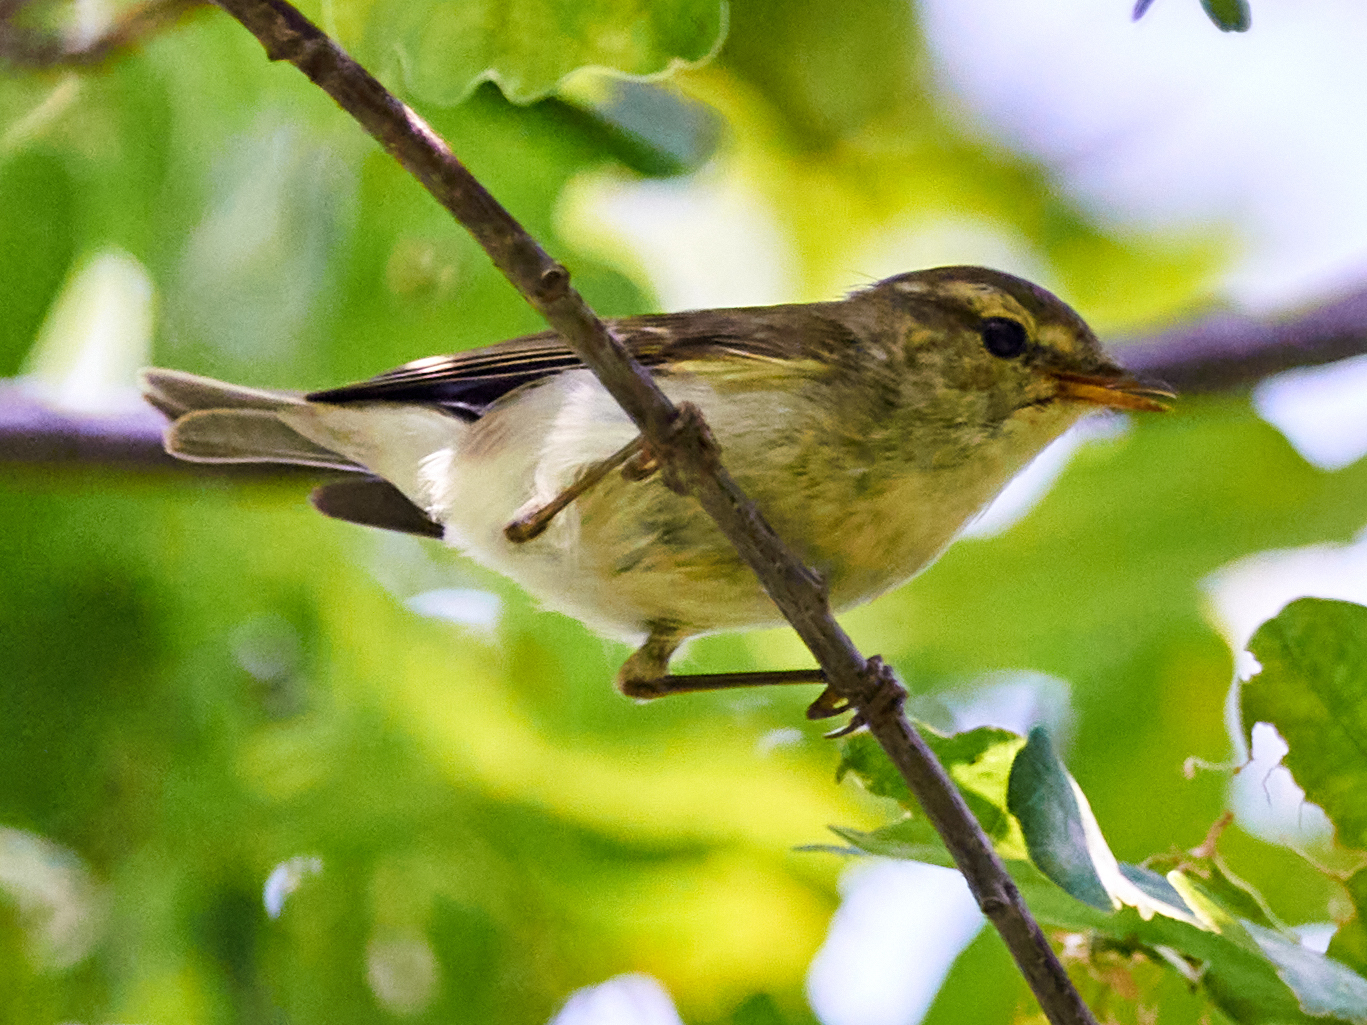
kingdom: Animalia
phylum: Chordata
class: Aves
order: Passeriformes
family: Phylloscopidae
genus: Phylloscopus
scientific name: Phylloscopus trochiloides
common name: Greenish warbler
